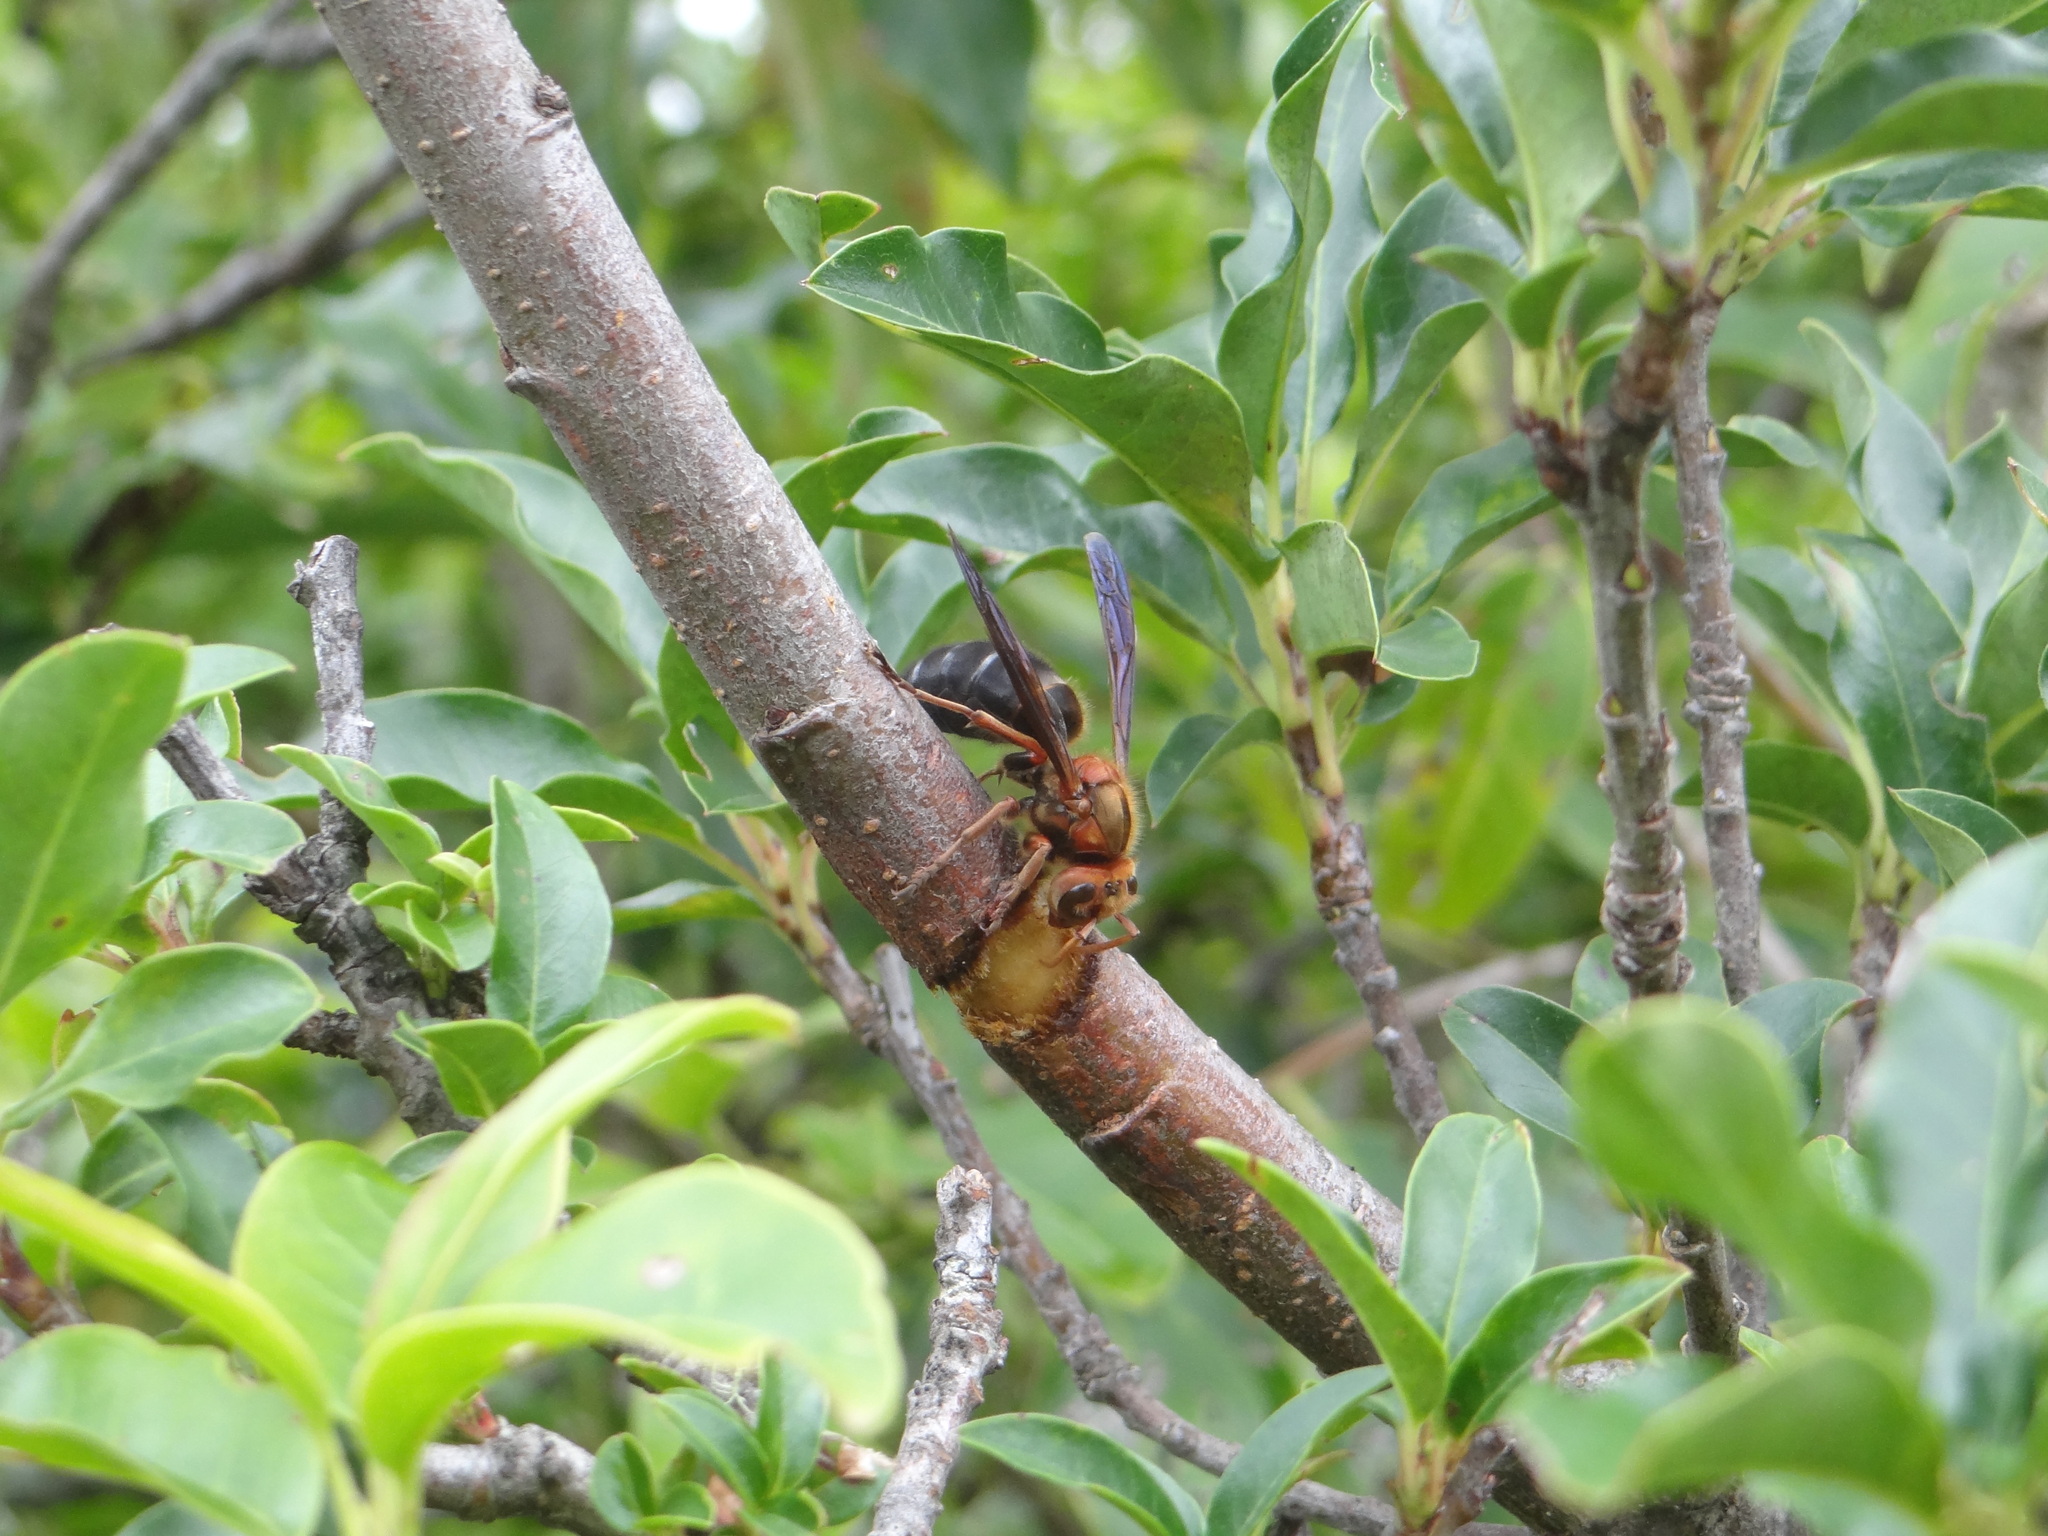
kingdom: Animalia
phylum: Arthropoda
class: Insecta
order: Hymenoptera
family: Vespidae
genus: Vespa
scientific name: Vespa basalis
